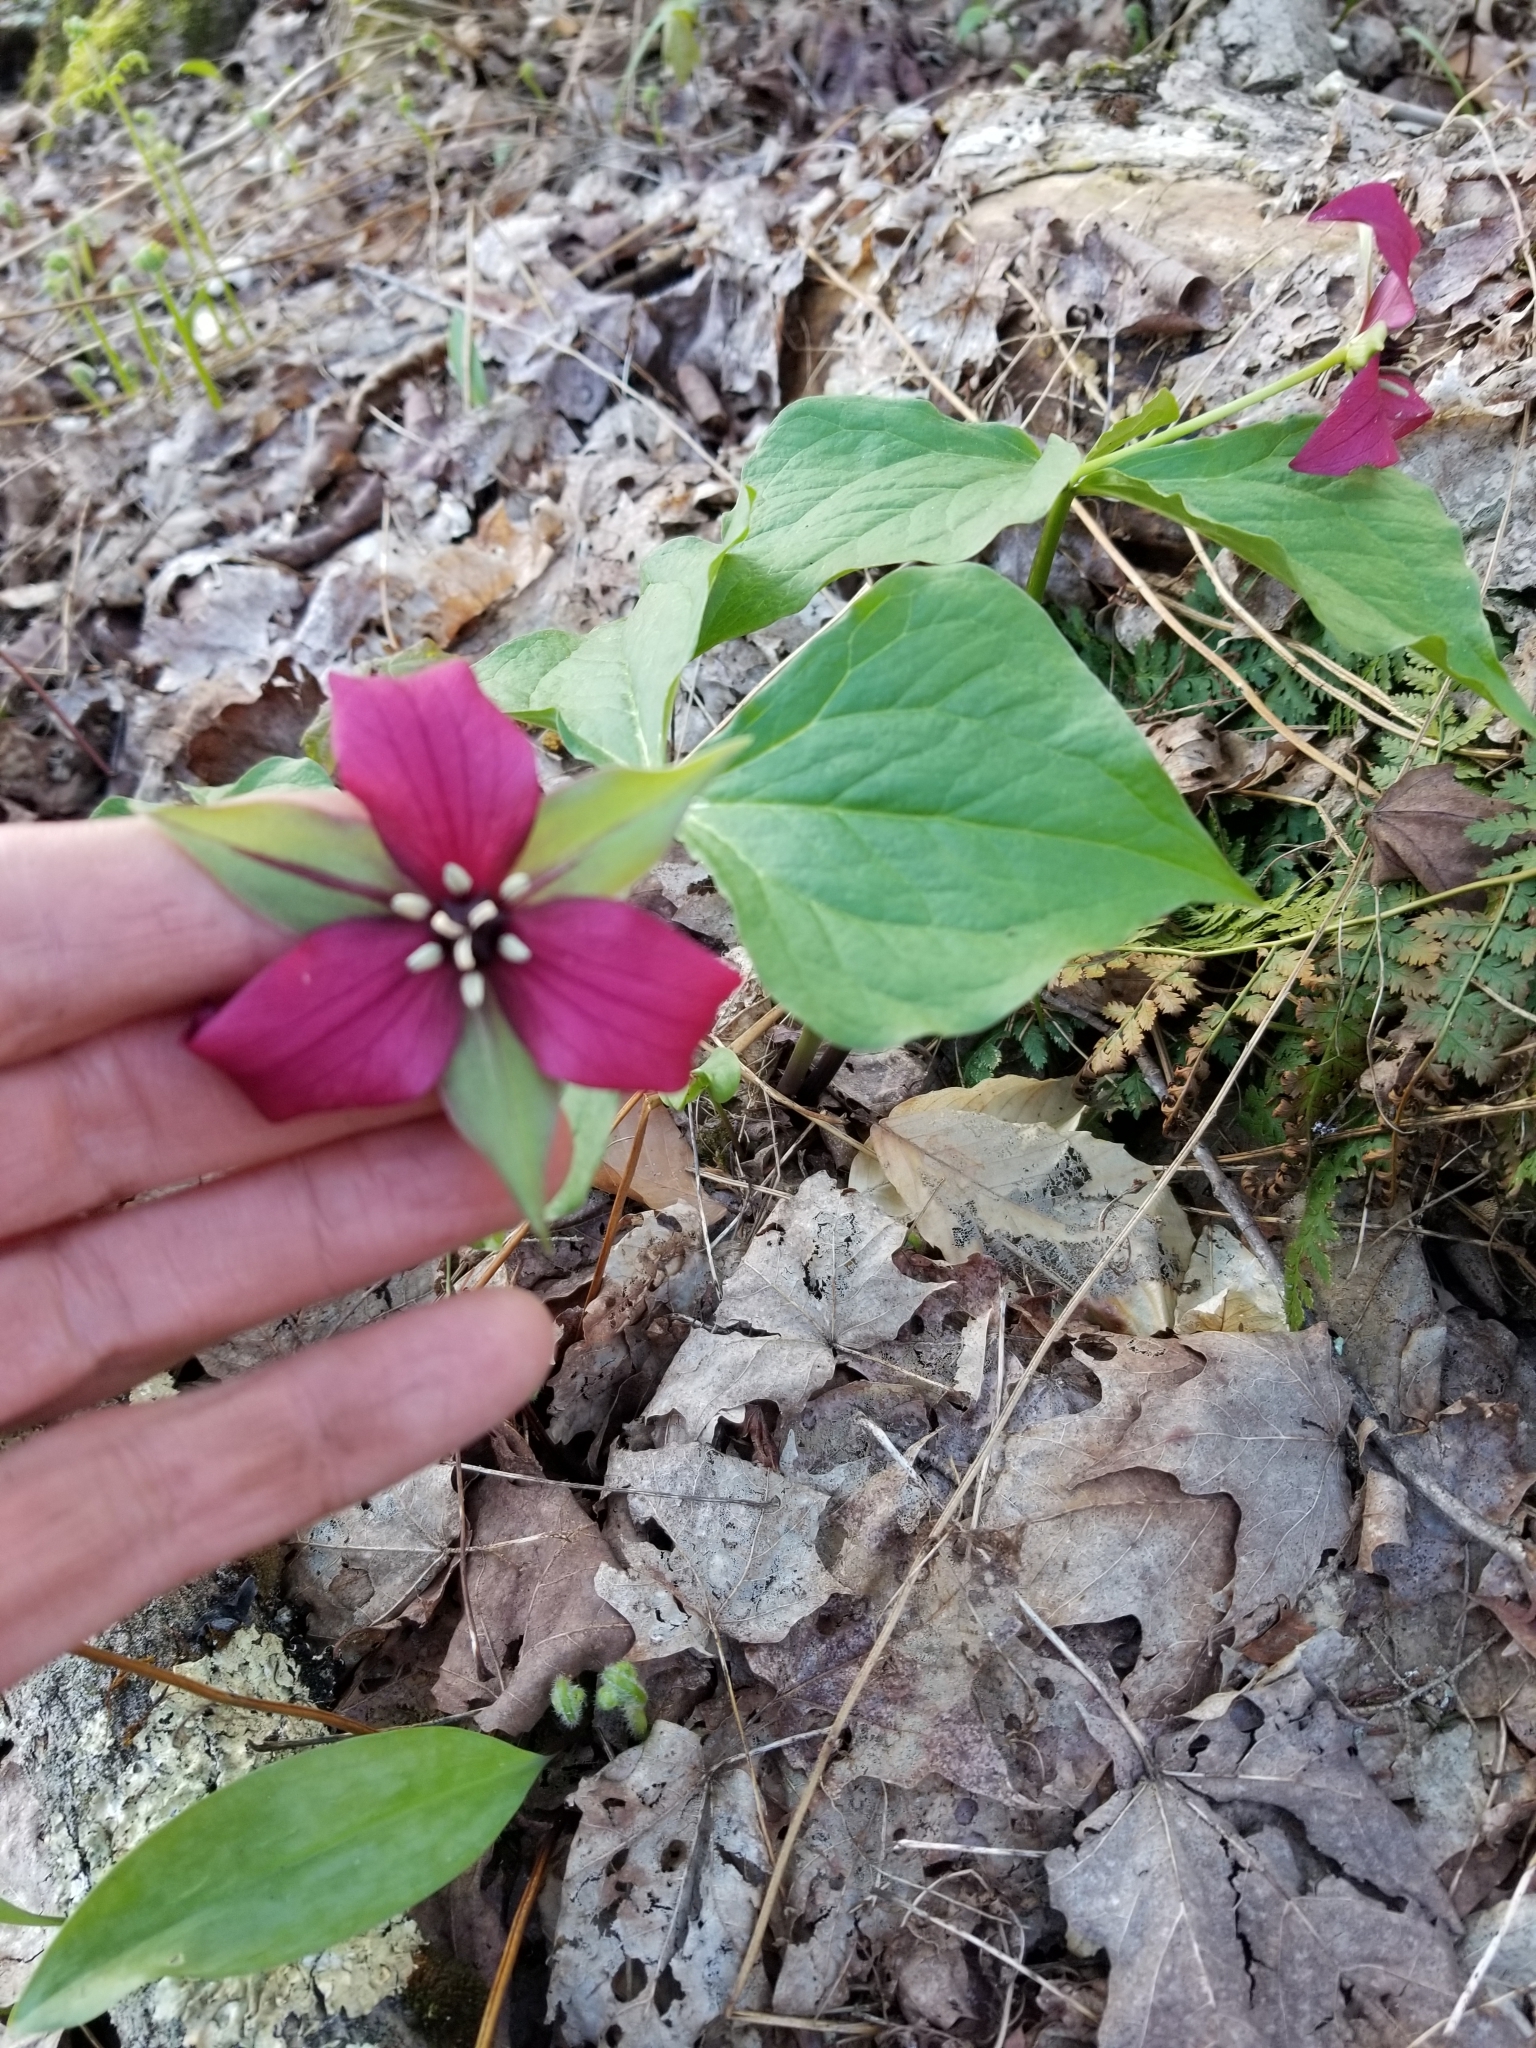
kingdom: Plantae
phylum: Tracheophyta
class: Liliopsida
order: Liliales
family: Melanthiaceae
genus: Trillium
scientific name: Trillium erectum
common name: Purple trillium
